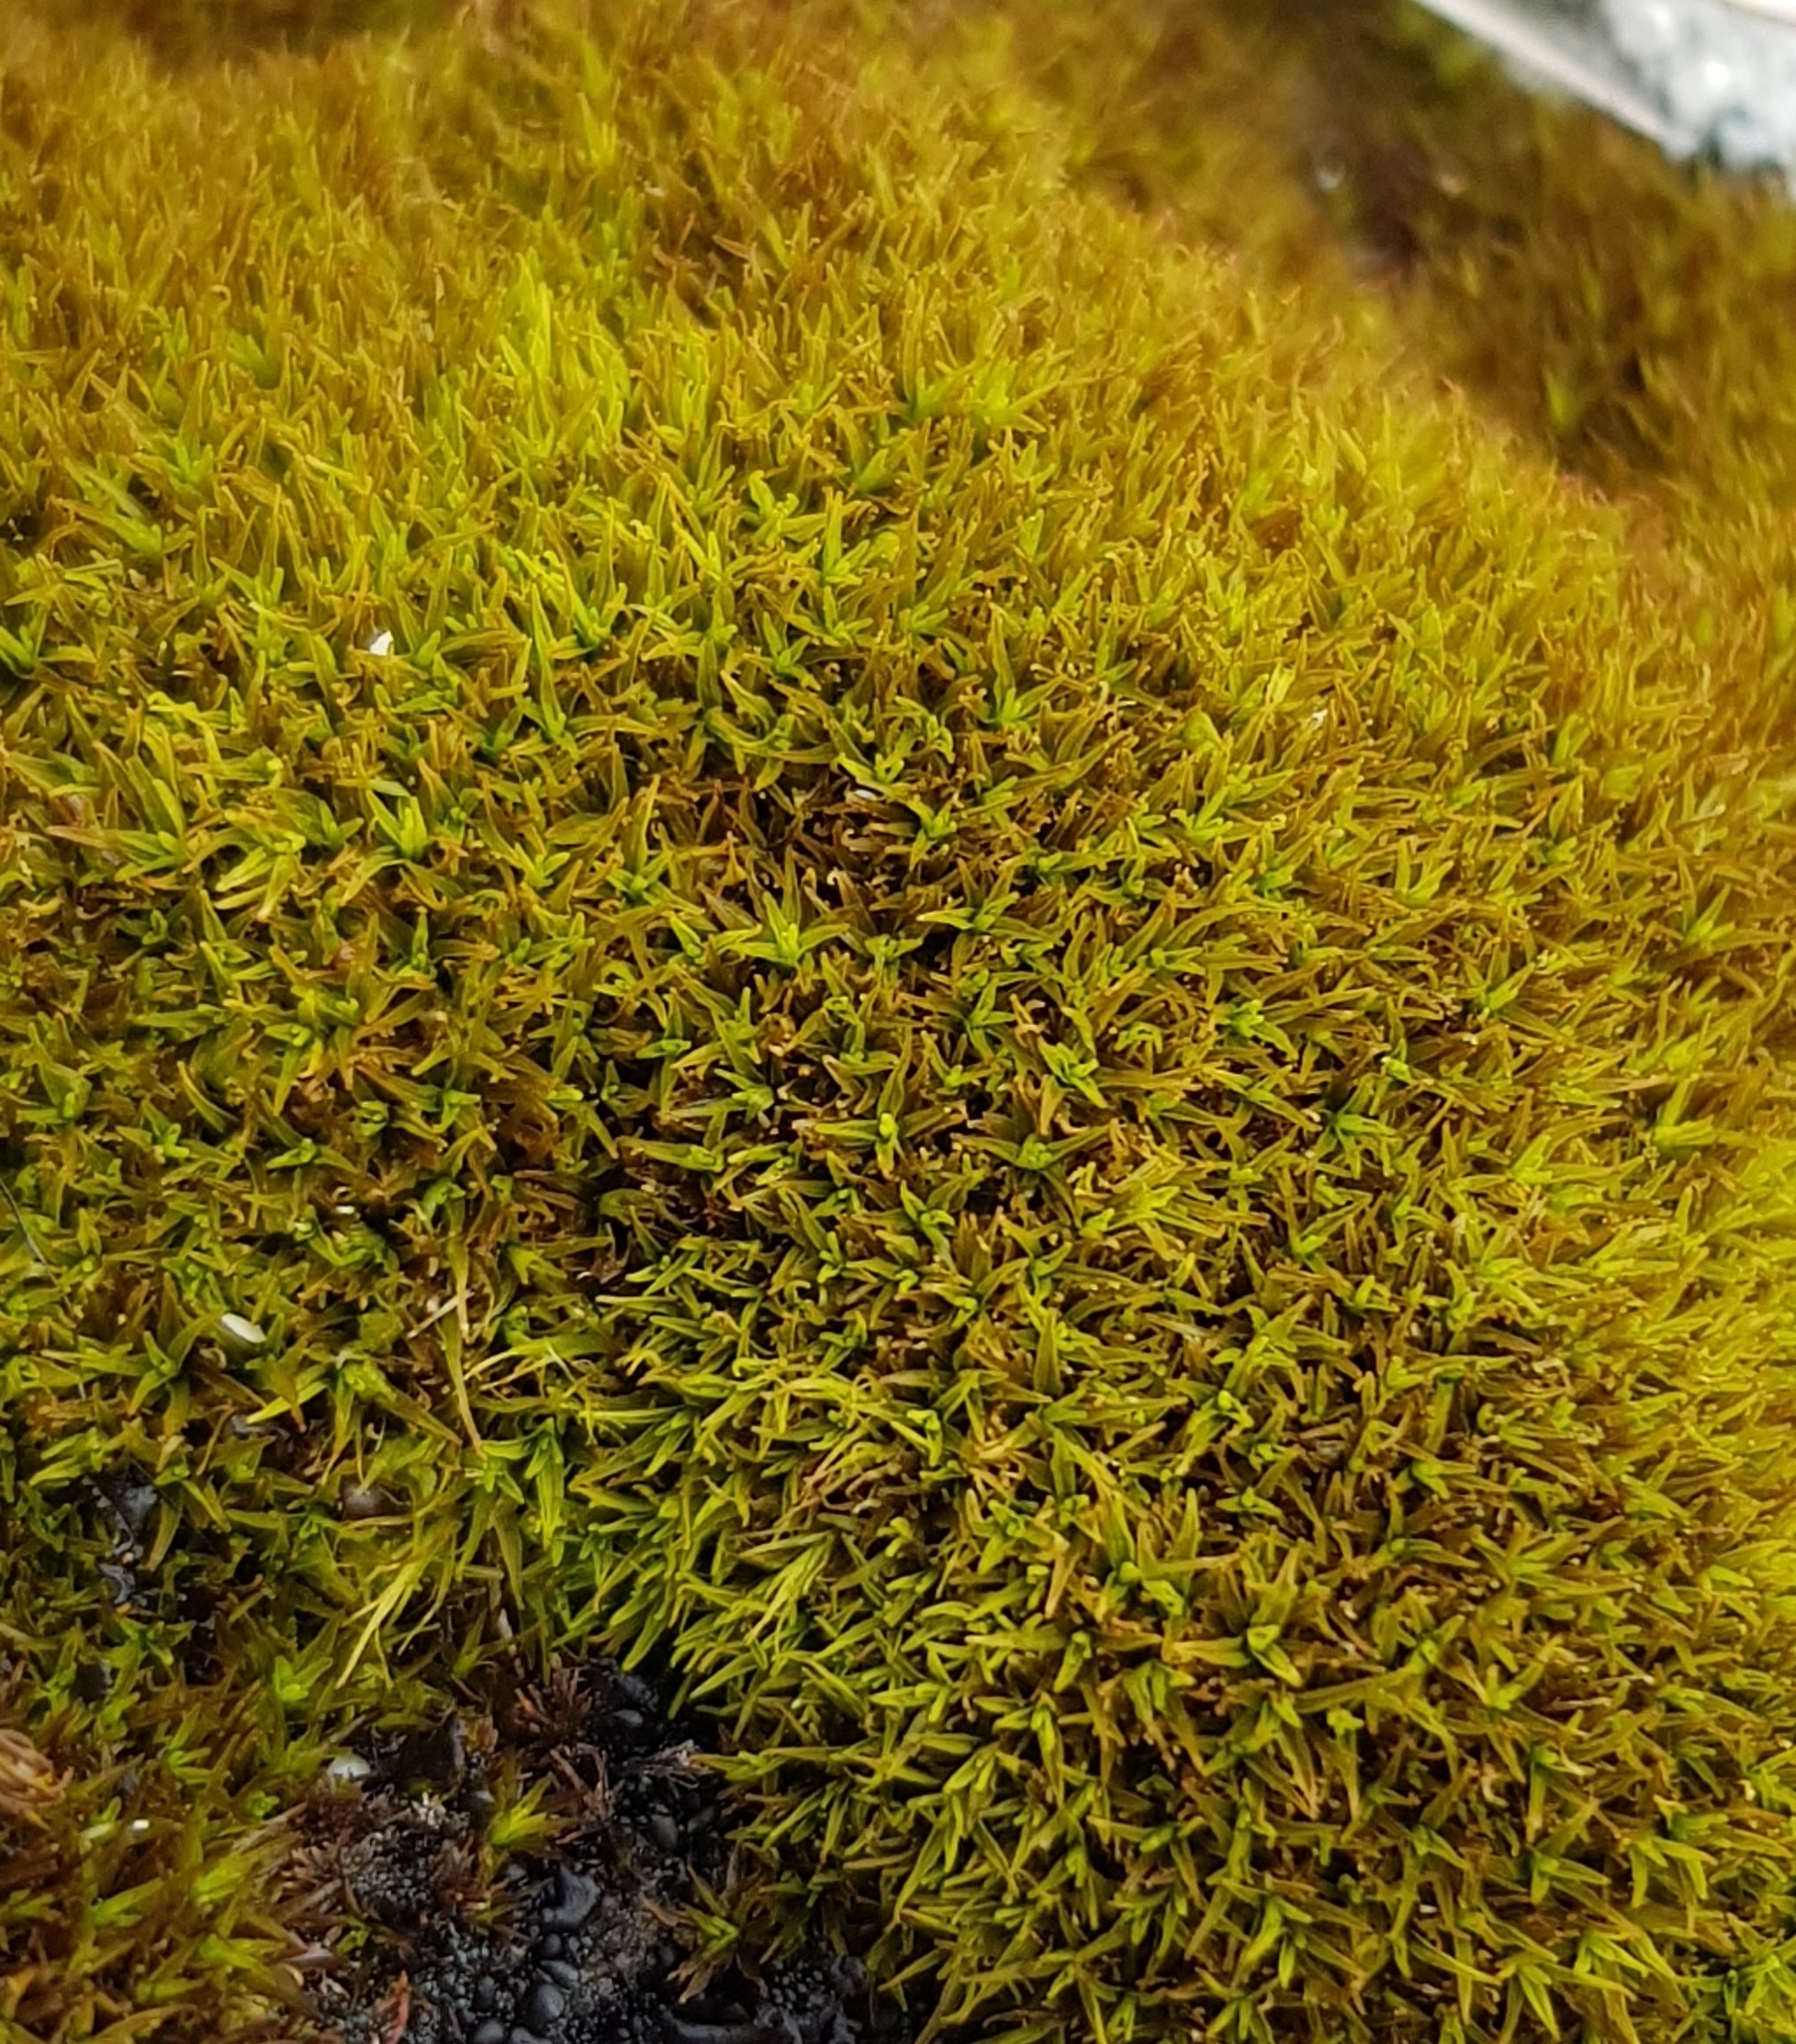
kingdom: Plantae
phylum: Bryophyta
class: Bryopsida
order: Pottiales
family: Pottiaceae
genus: Trichostomum
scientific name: Trichostomum crispulum
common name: Curly crisp-moss
